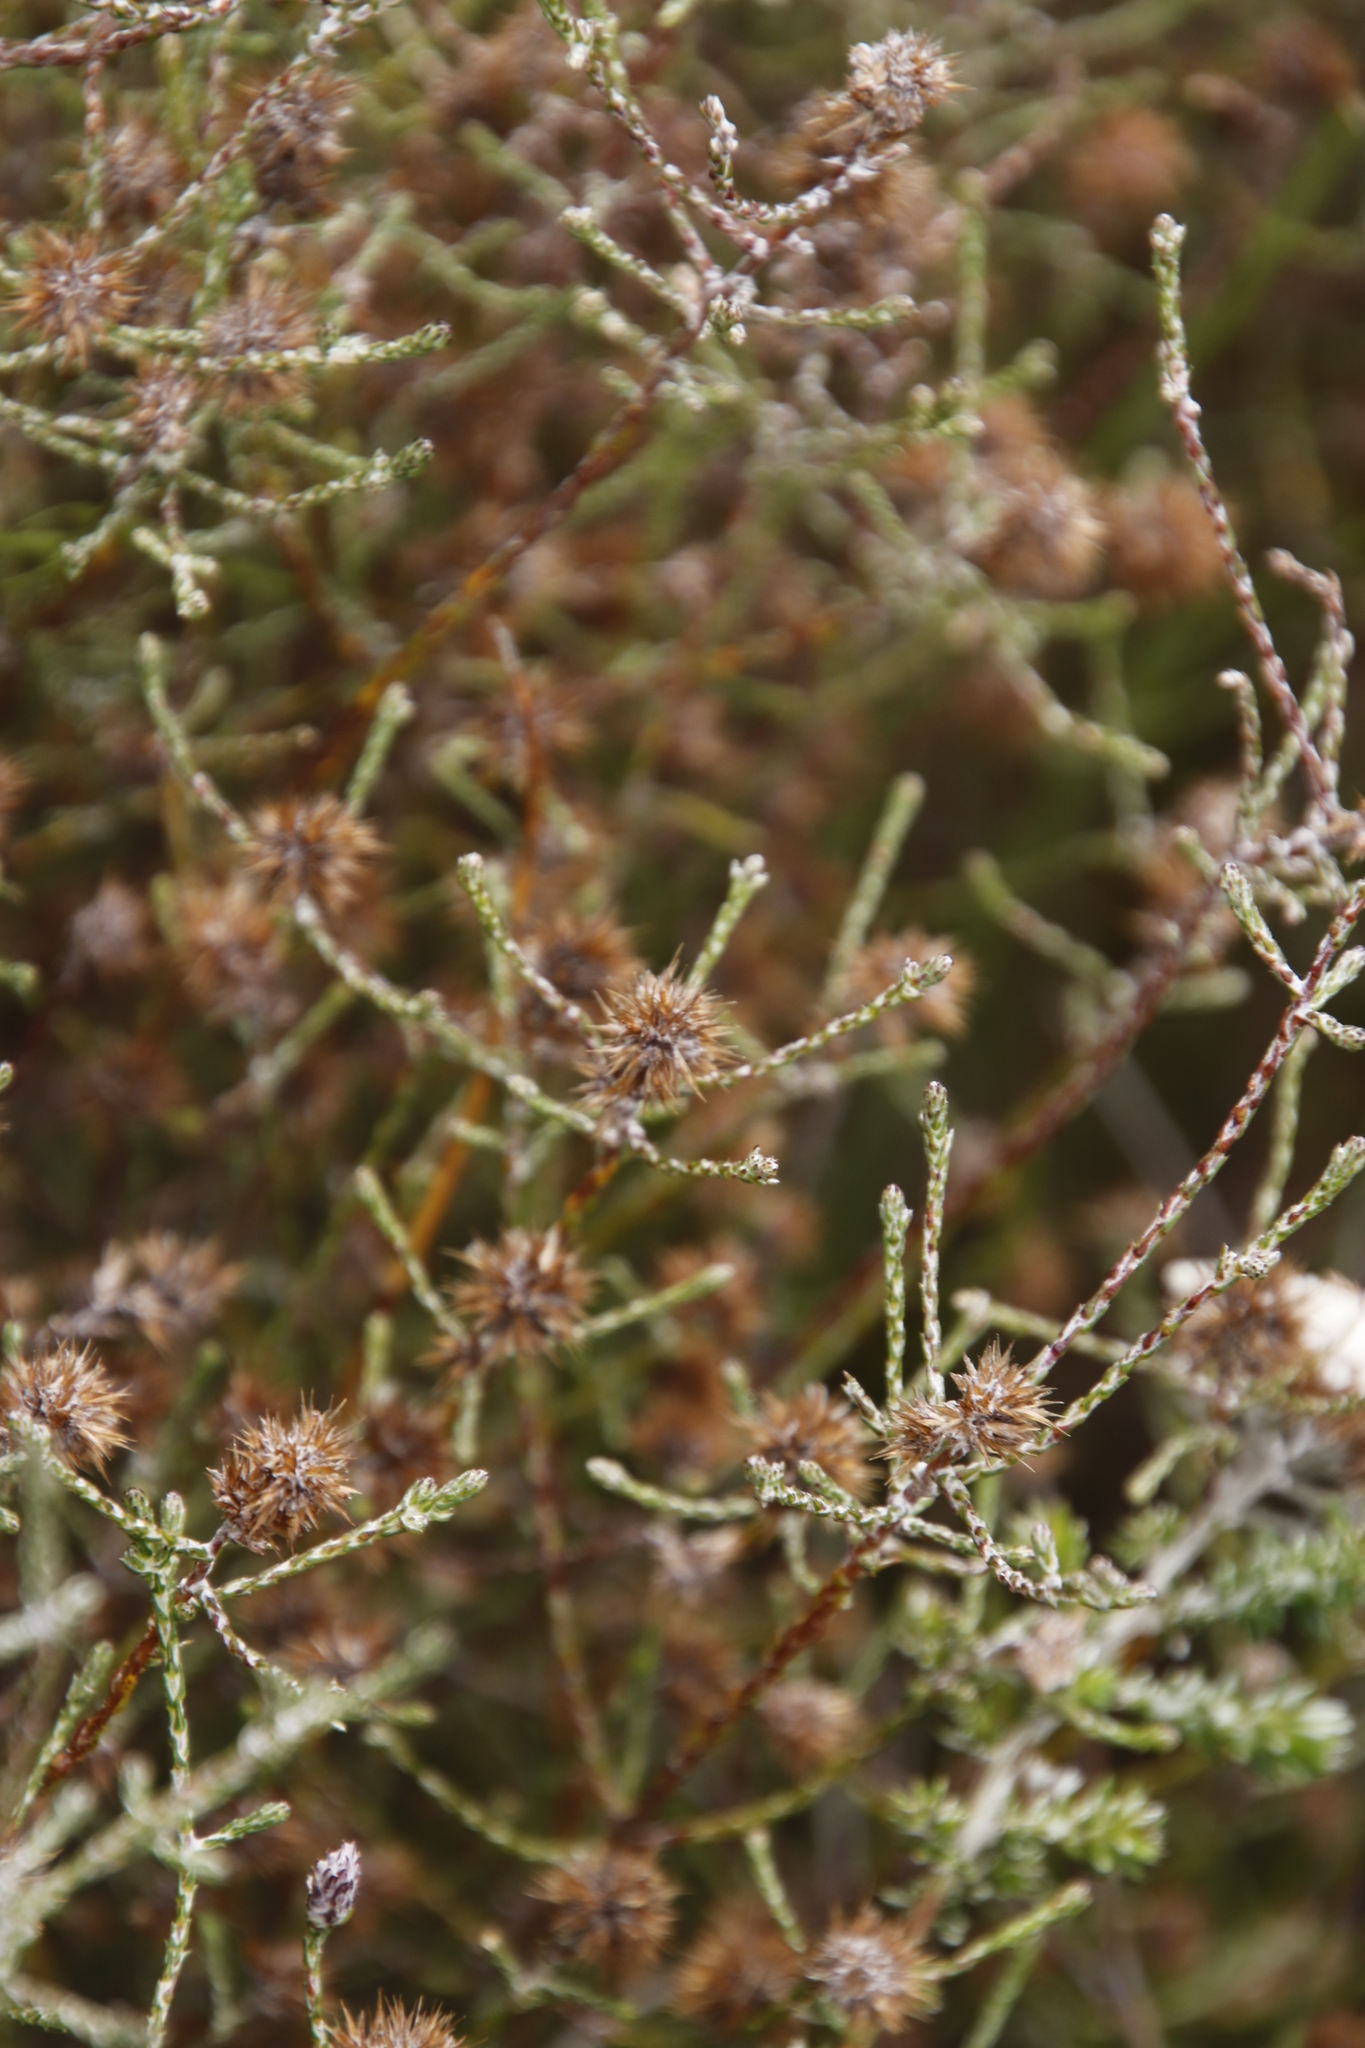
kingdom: Plantae
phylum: Tracheophyta
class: Magnoliopsida
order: Asterales
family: Asteraceae
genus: Stoebe
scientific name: Stoebe schultzii
